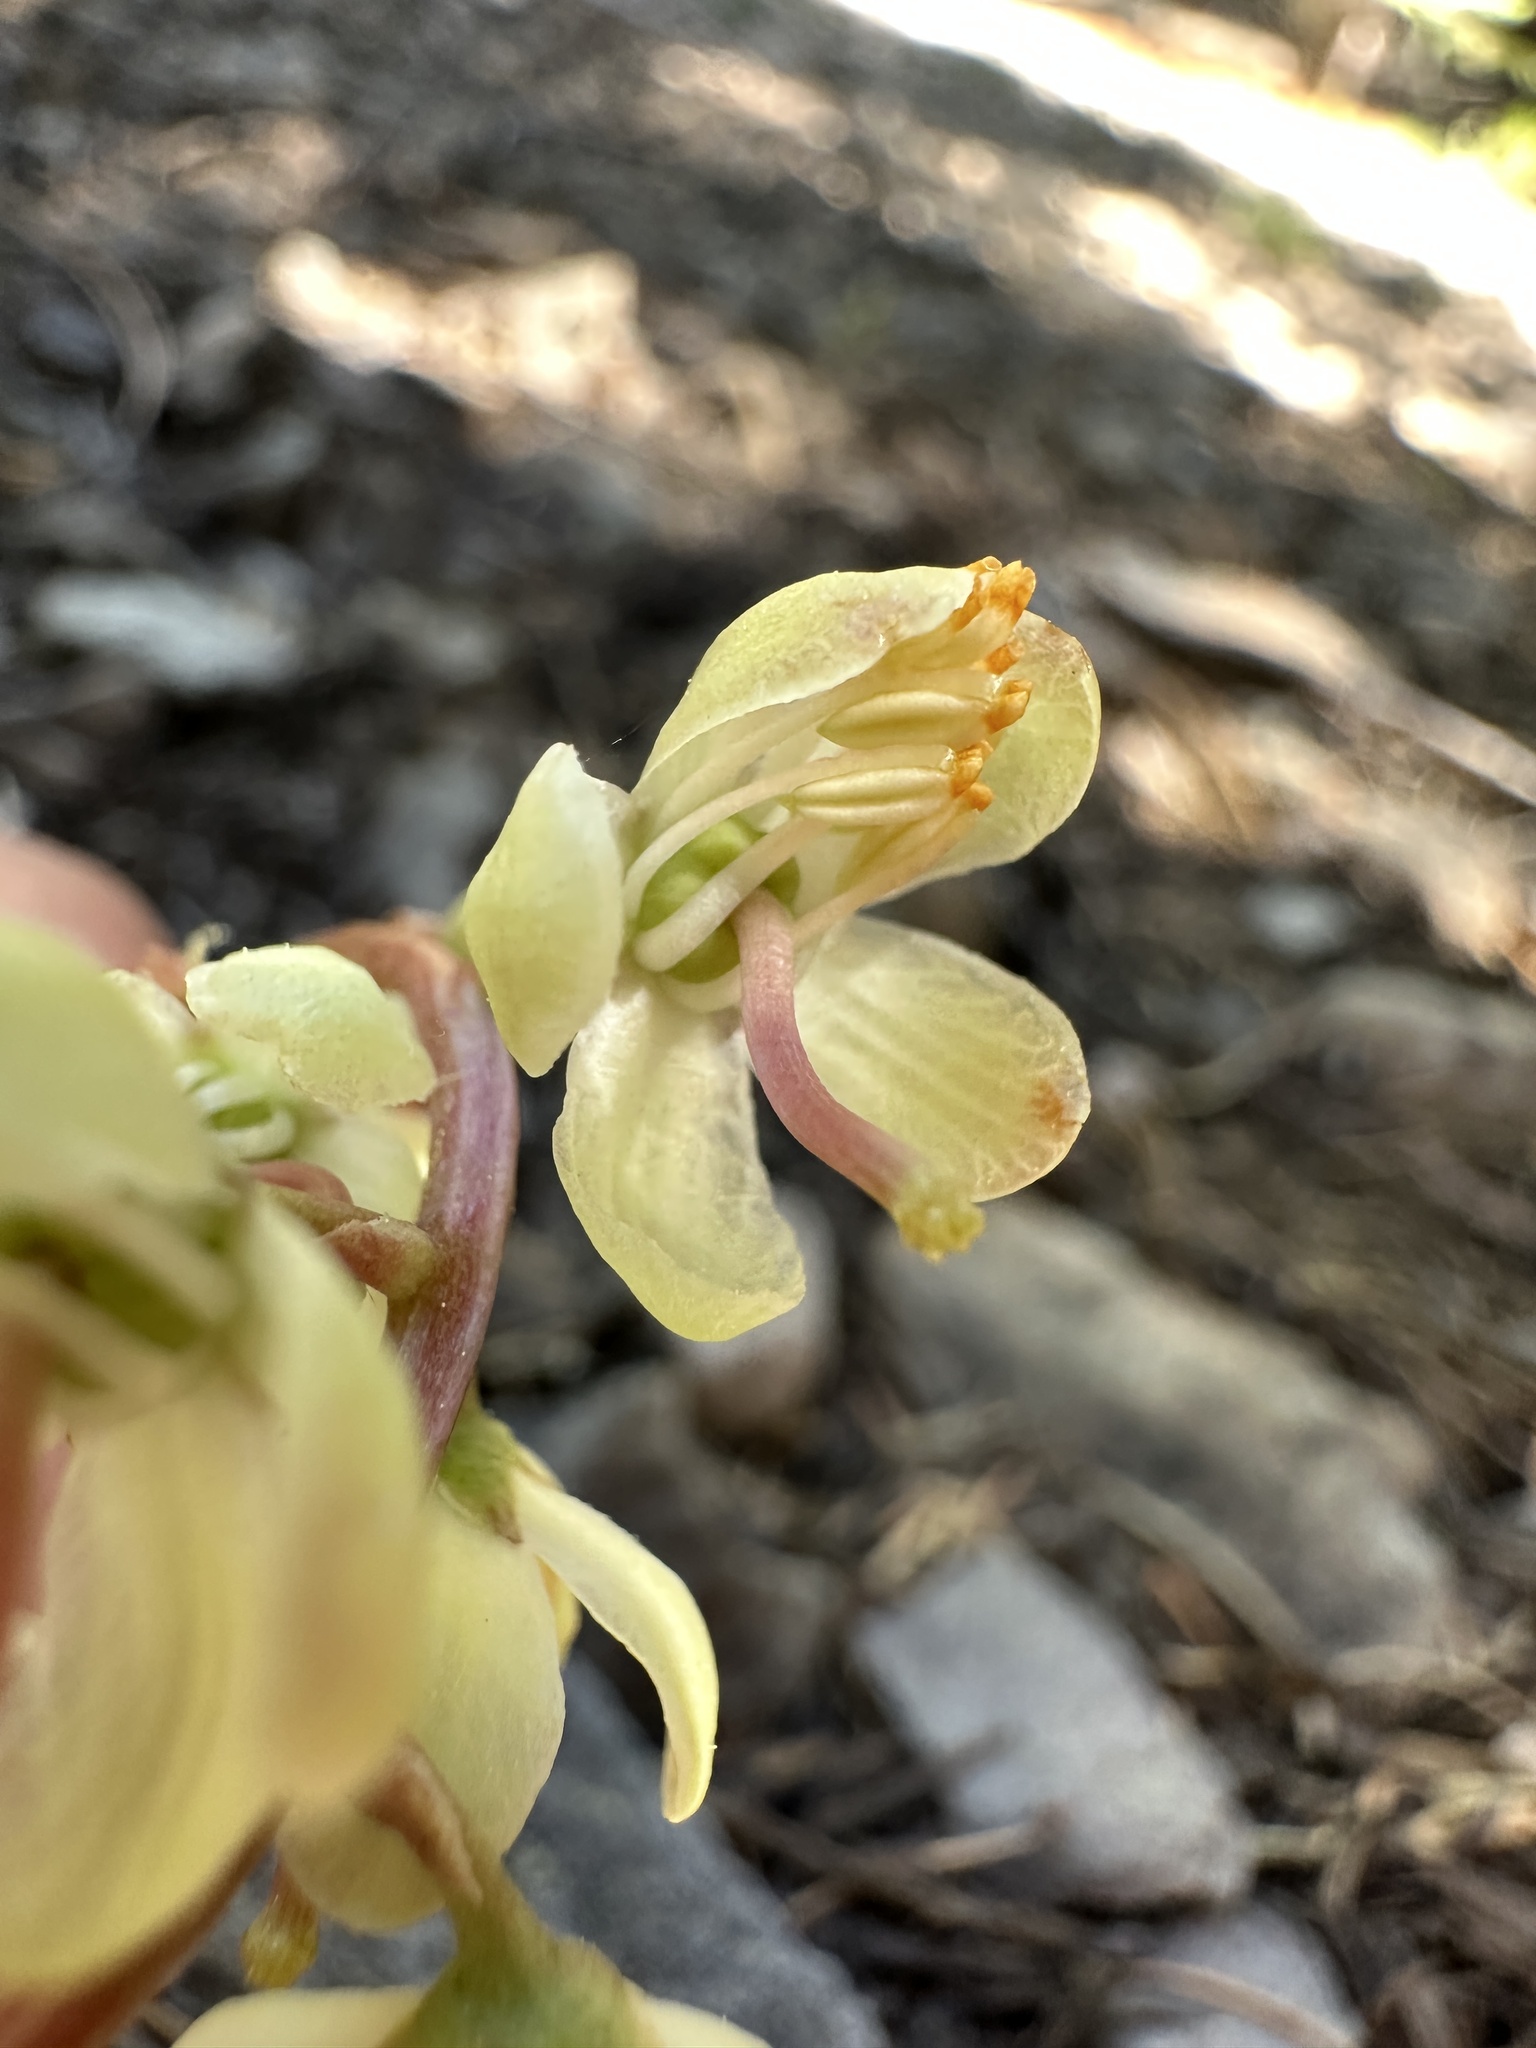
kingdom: Plantae
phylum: Tracheophyta
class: Magnoliopsida
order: Ericales
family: Ericaceae
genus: Pyrola
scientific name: Pyrola picta
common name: White-vein wintergreen
